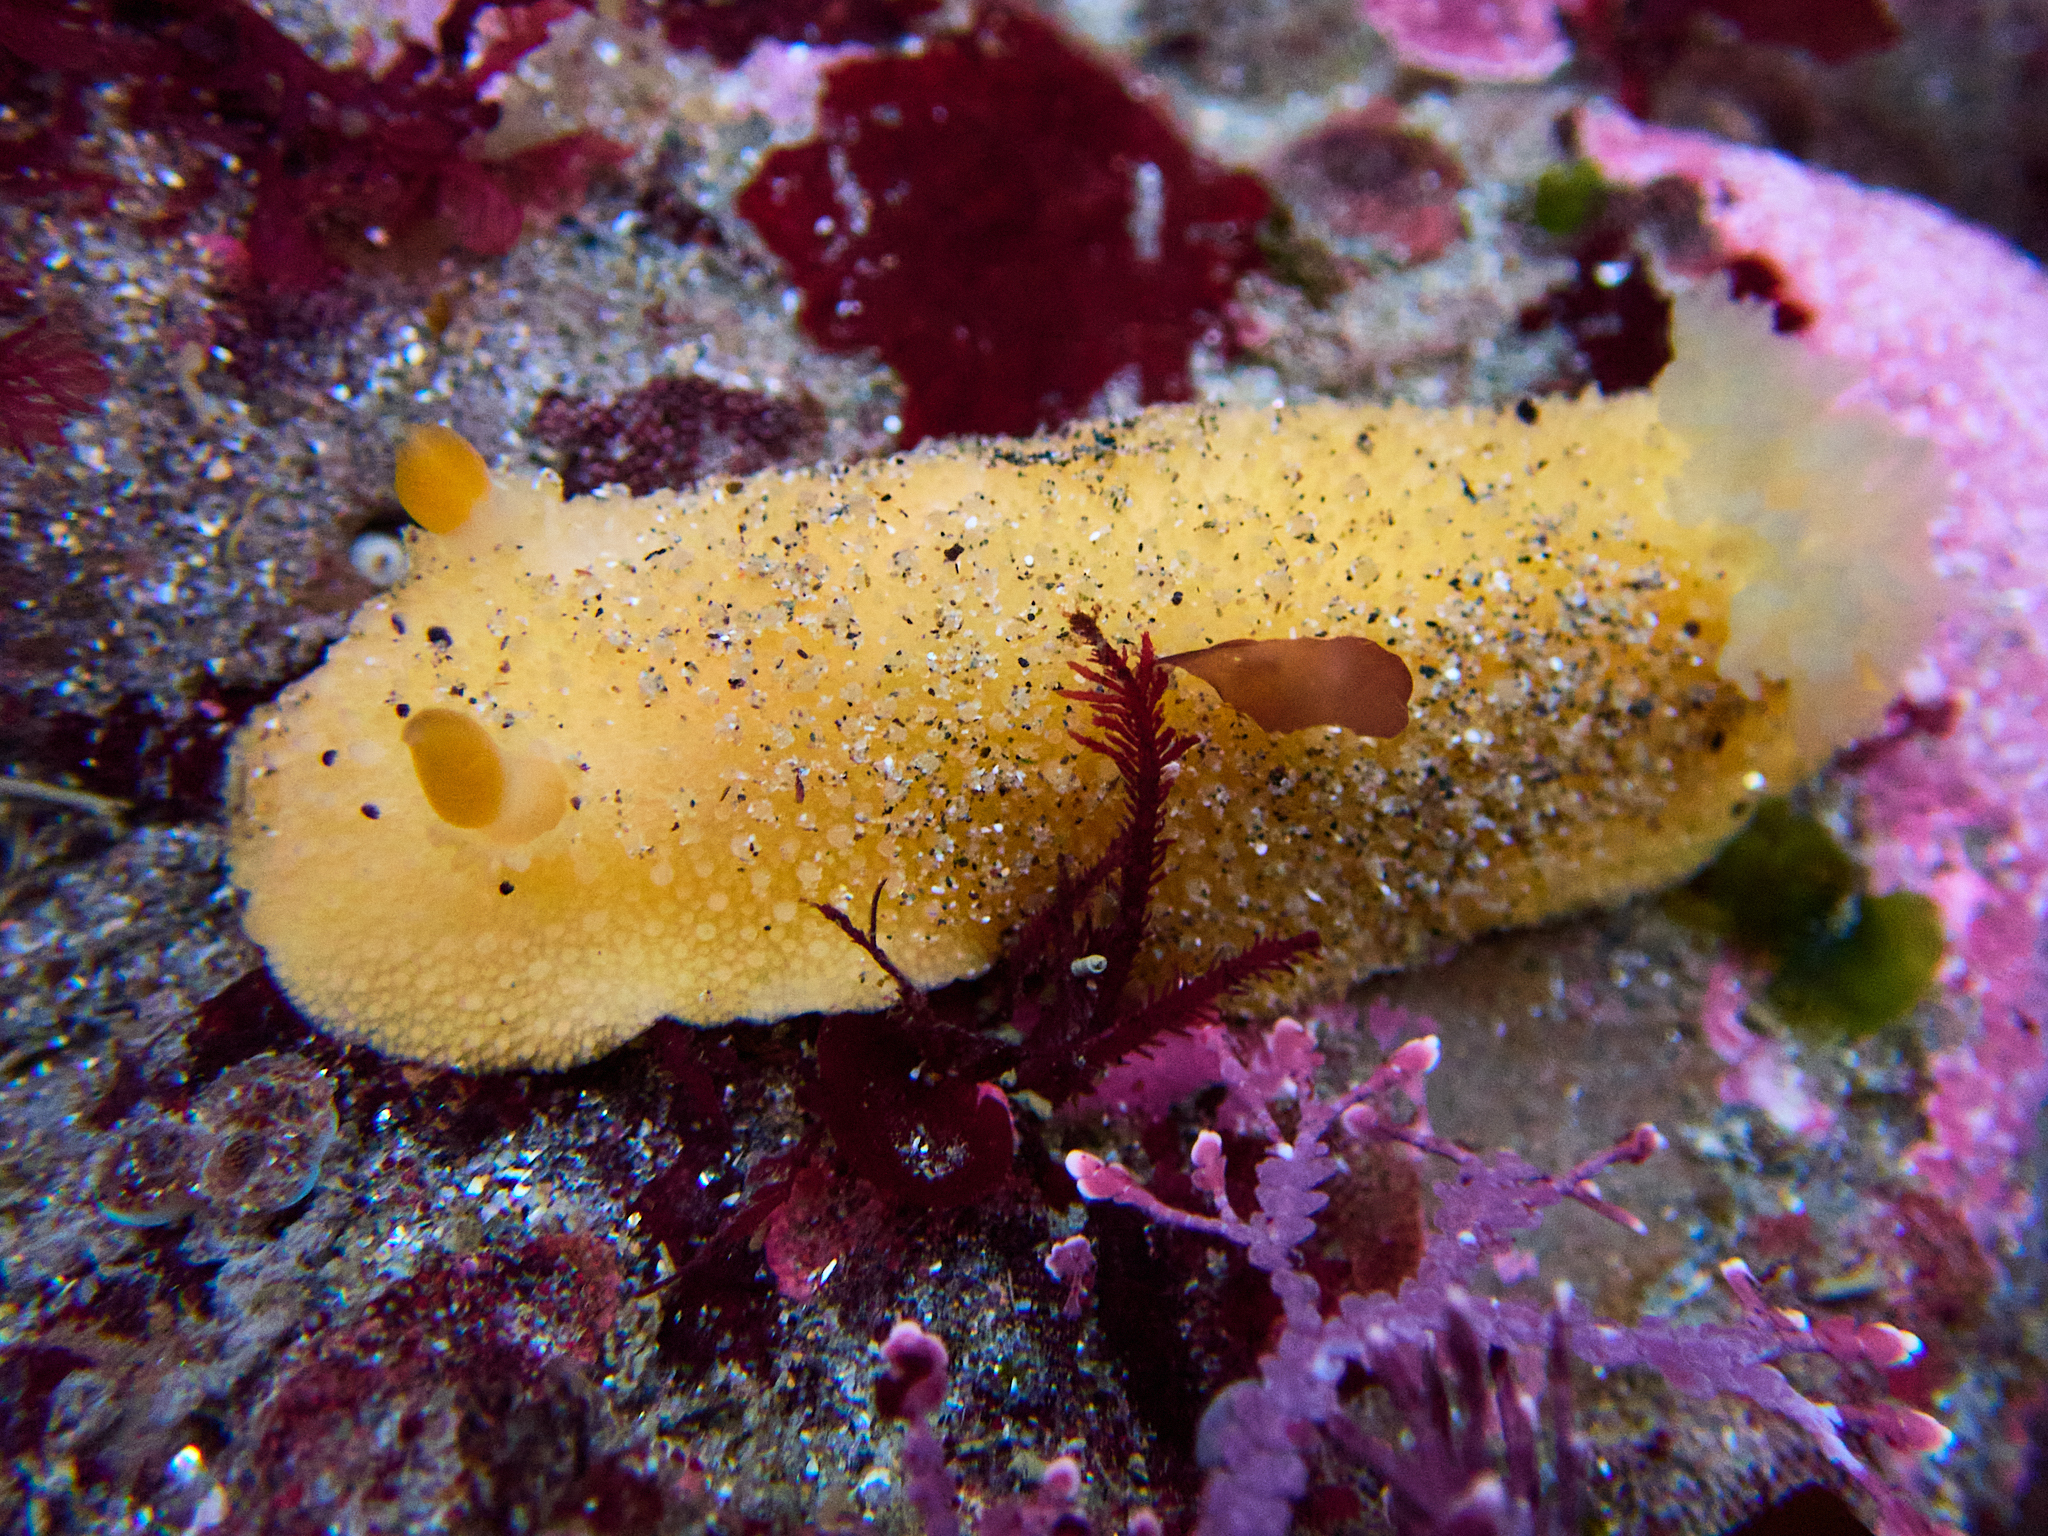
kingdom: Animalia
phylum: Mollusca
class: Gastropoda
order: Nudibranchia
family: Dorididae
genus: Doris
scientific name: Doris montereyensis
